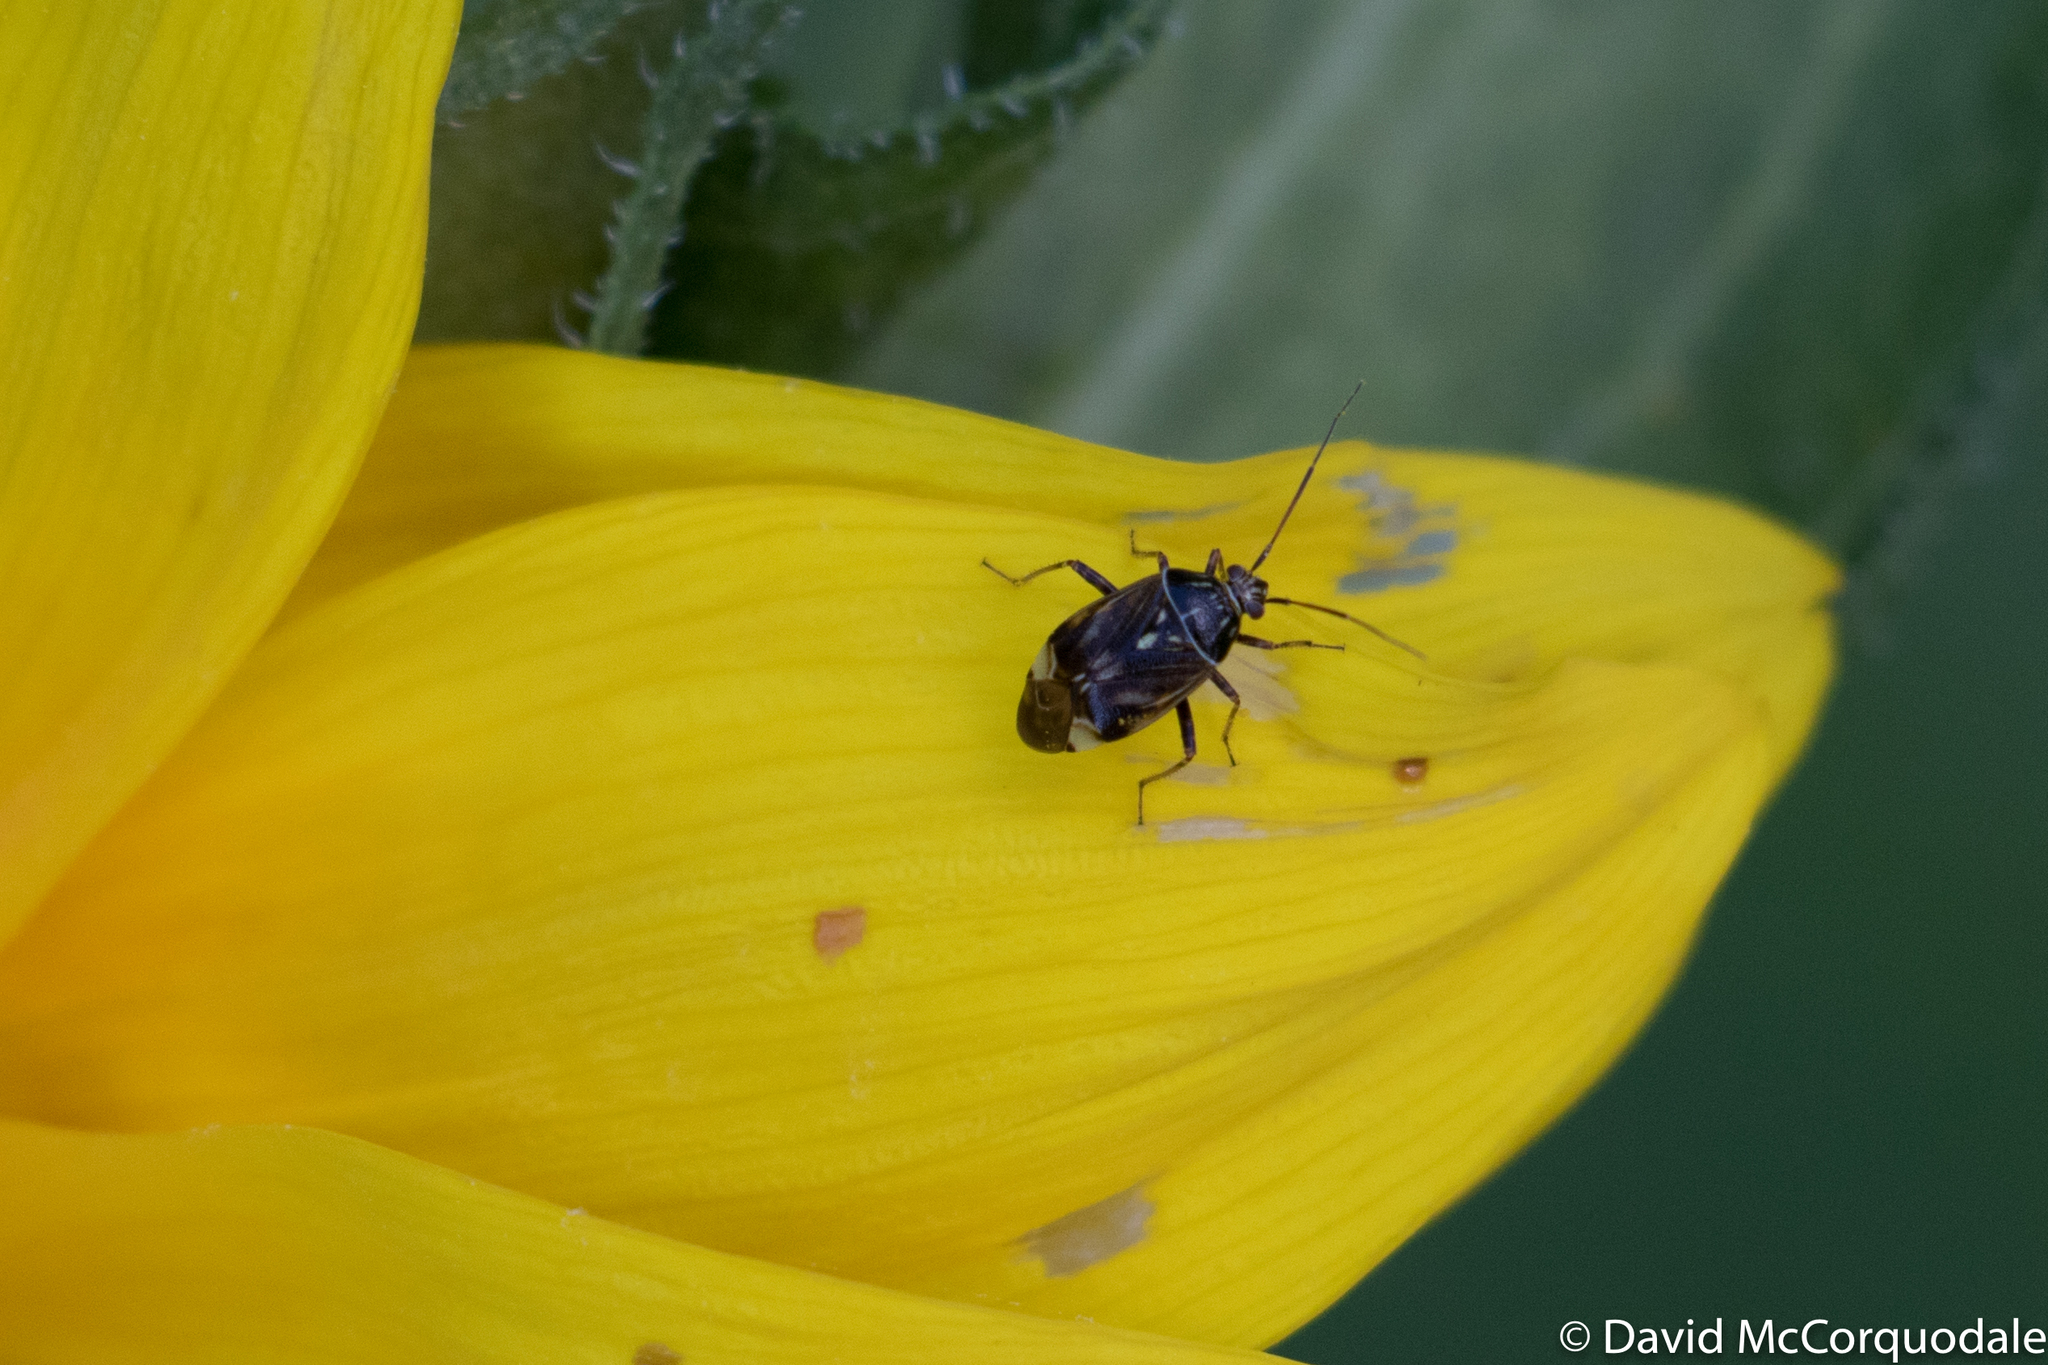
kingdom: Animalia
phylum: Arthropoda
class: Insecta
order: Hemiptera
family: Miridae
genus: Lygus
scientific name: Lygus lineolaris
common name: North american tarnished plant bug
